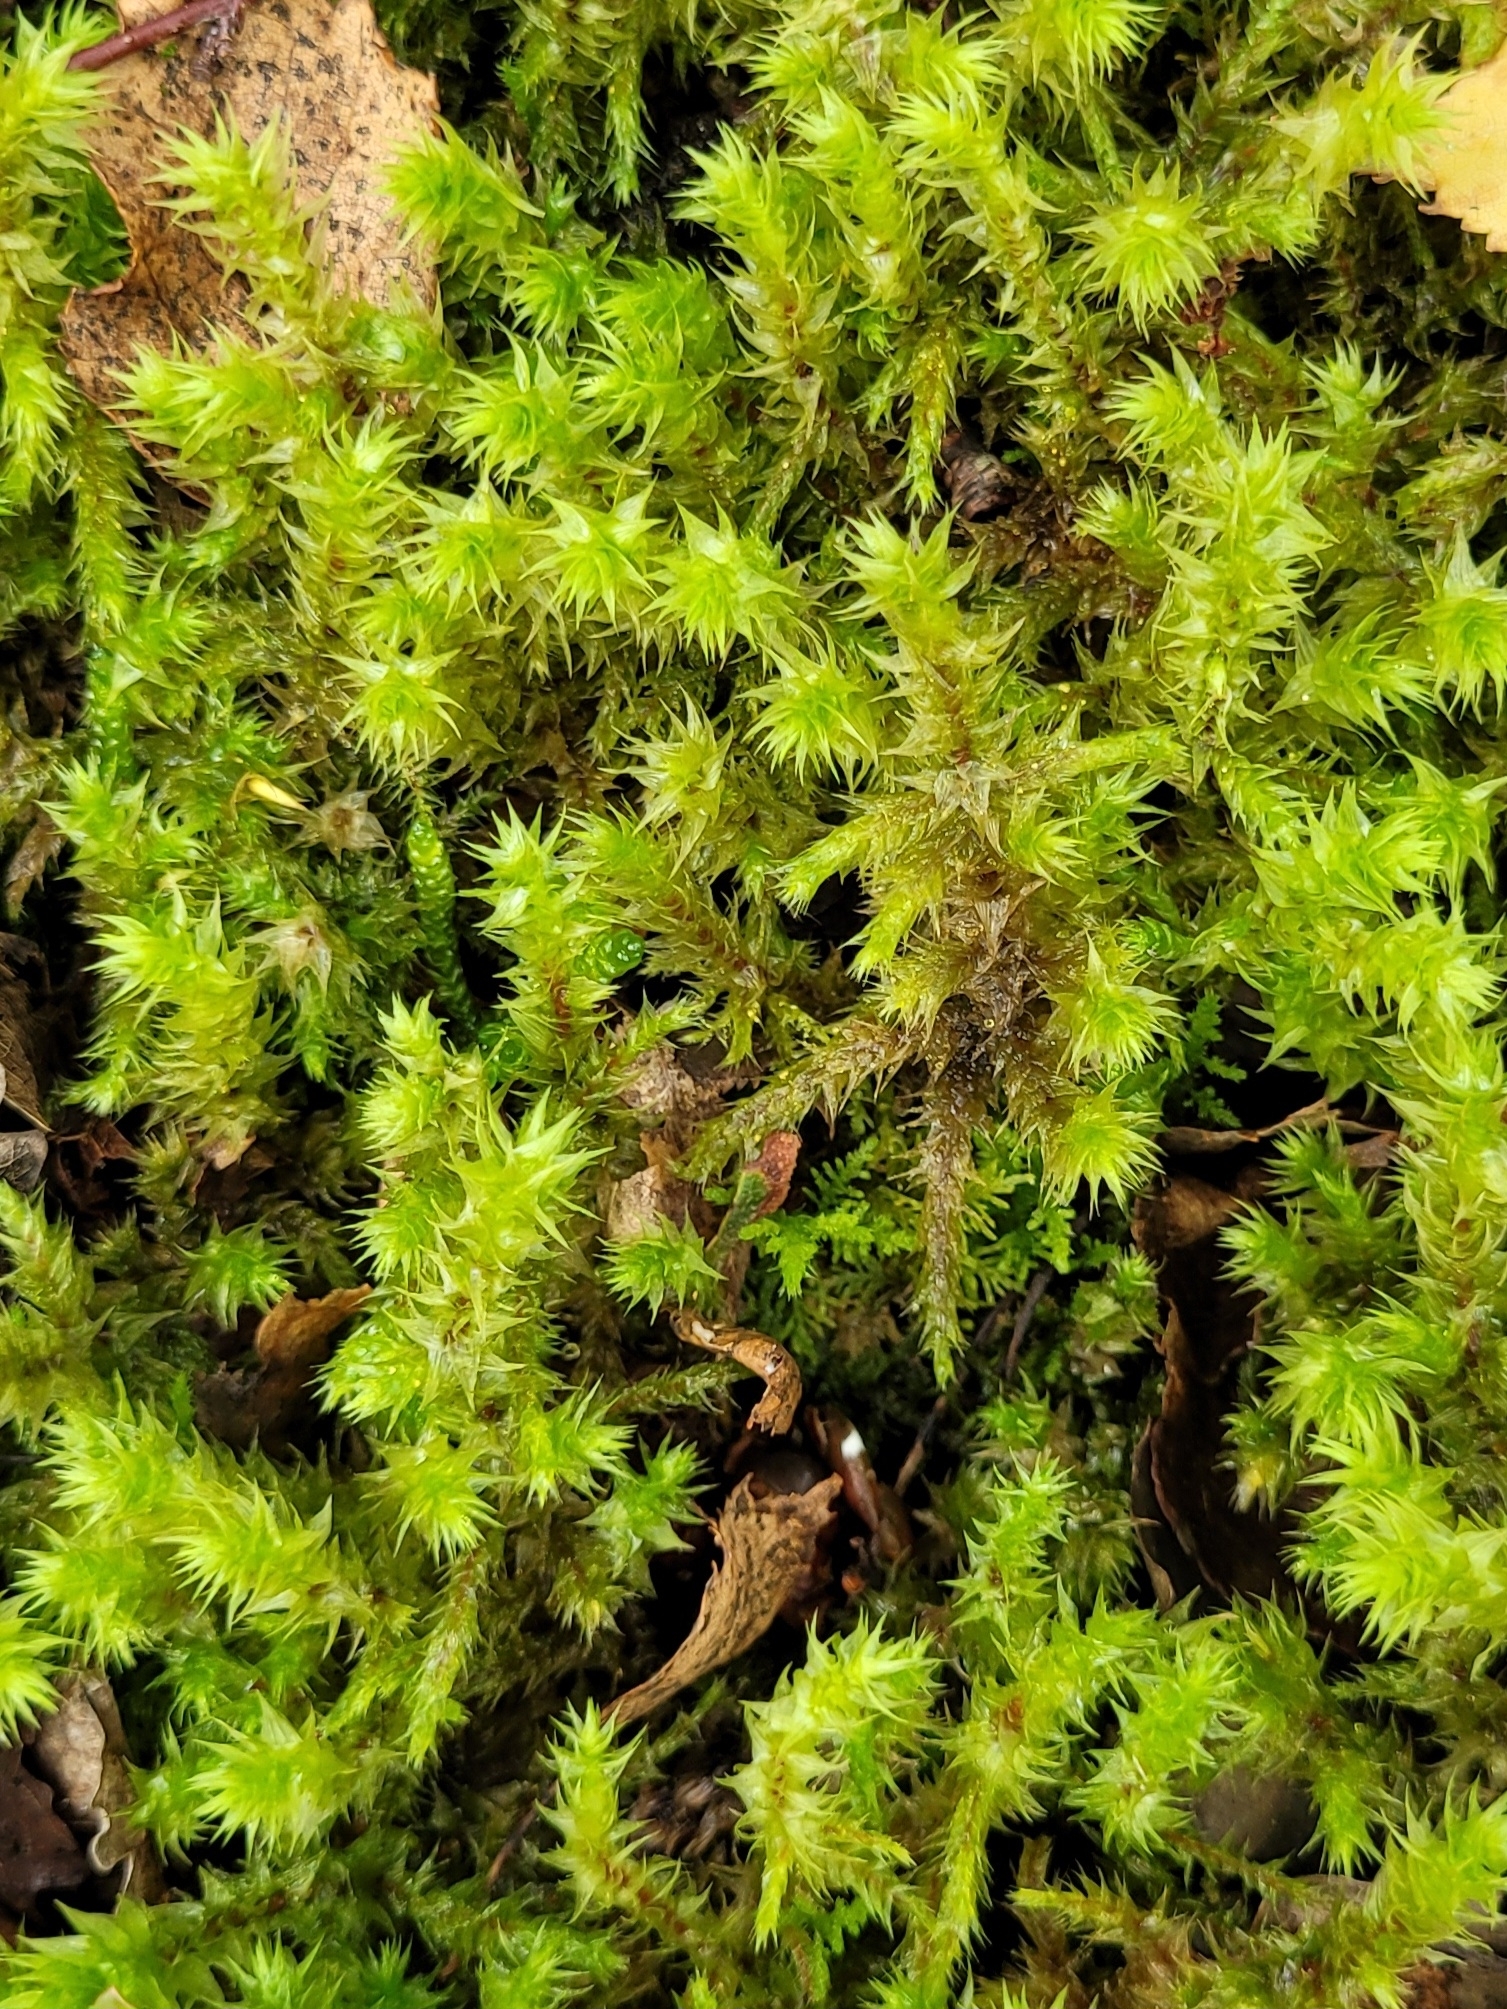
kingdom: Plantae
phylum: Bryophyta
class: Bryopsida
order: Hypnales
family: Hylocomiaceae
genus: Hylocomiadelphus
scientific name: Hylocomiadelphus triquetrus
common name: Rough goose neck moss
